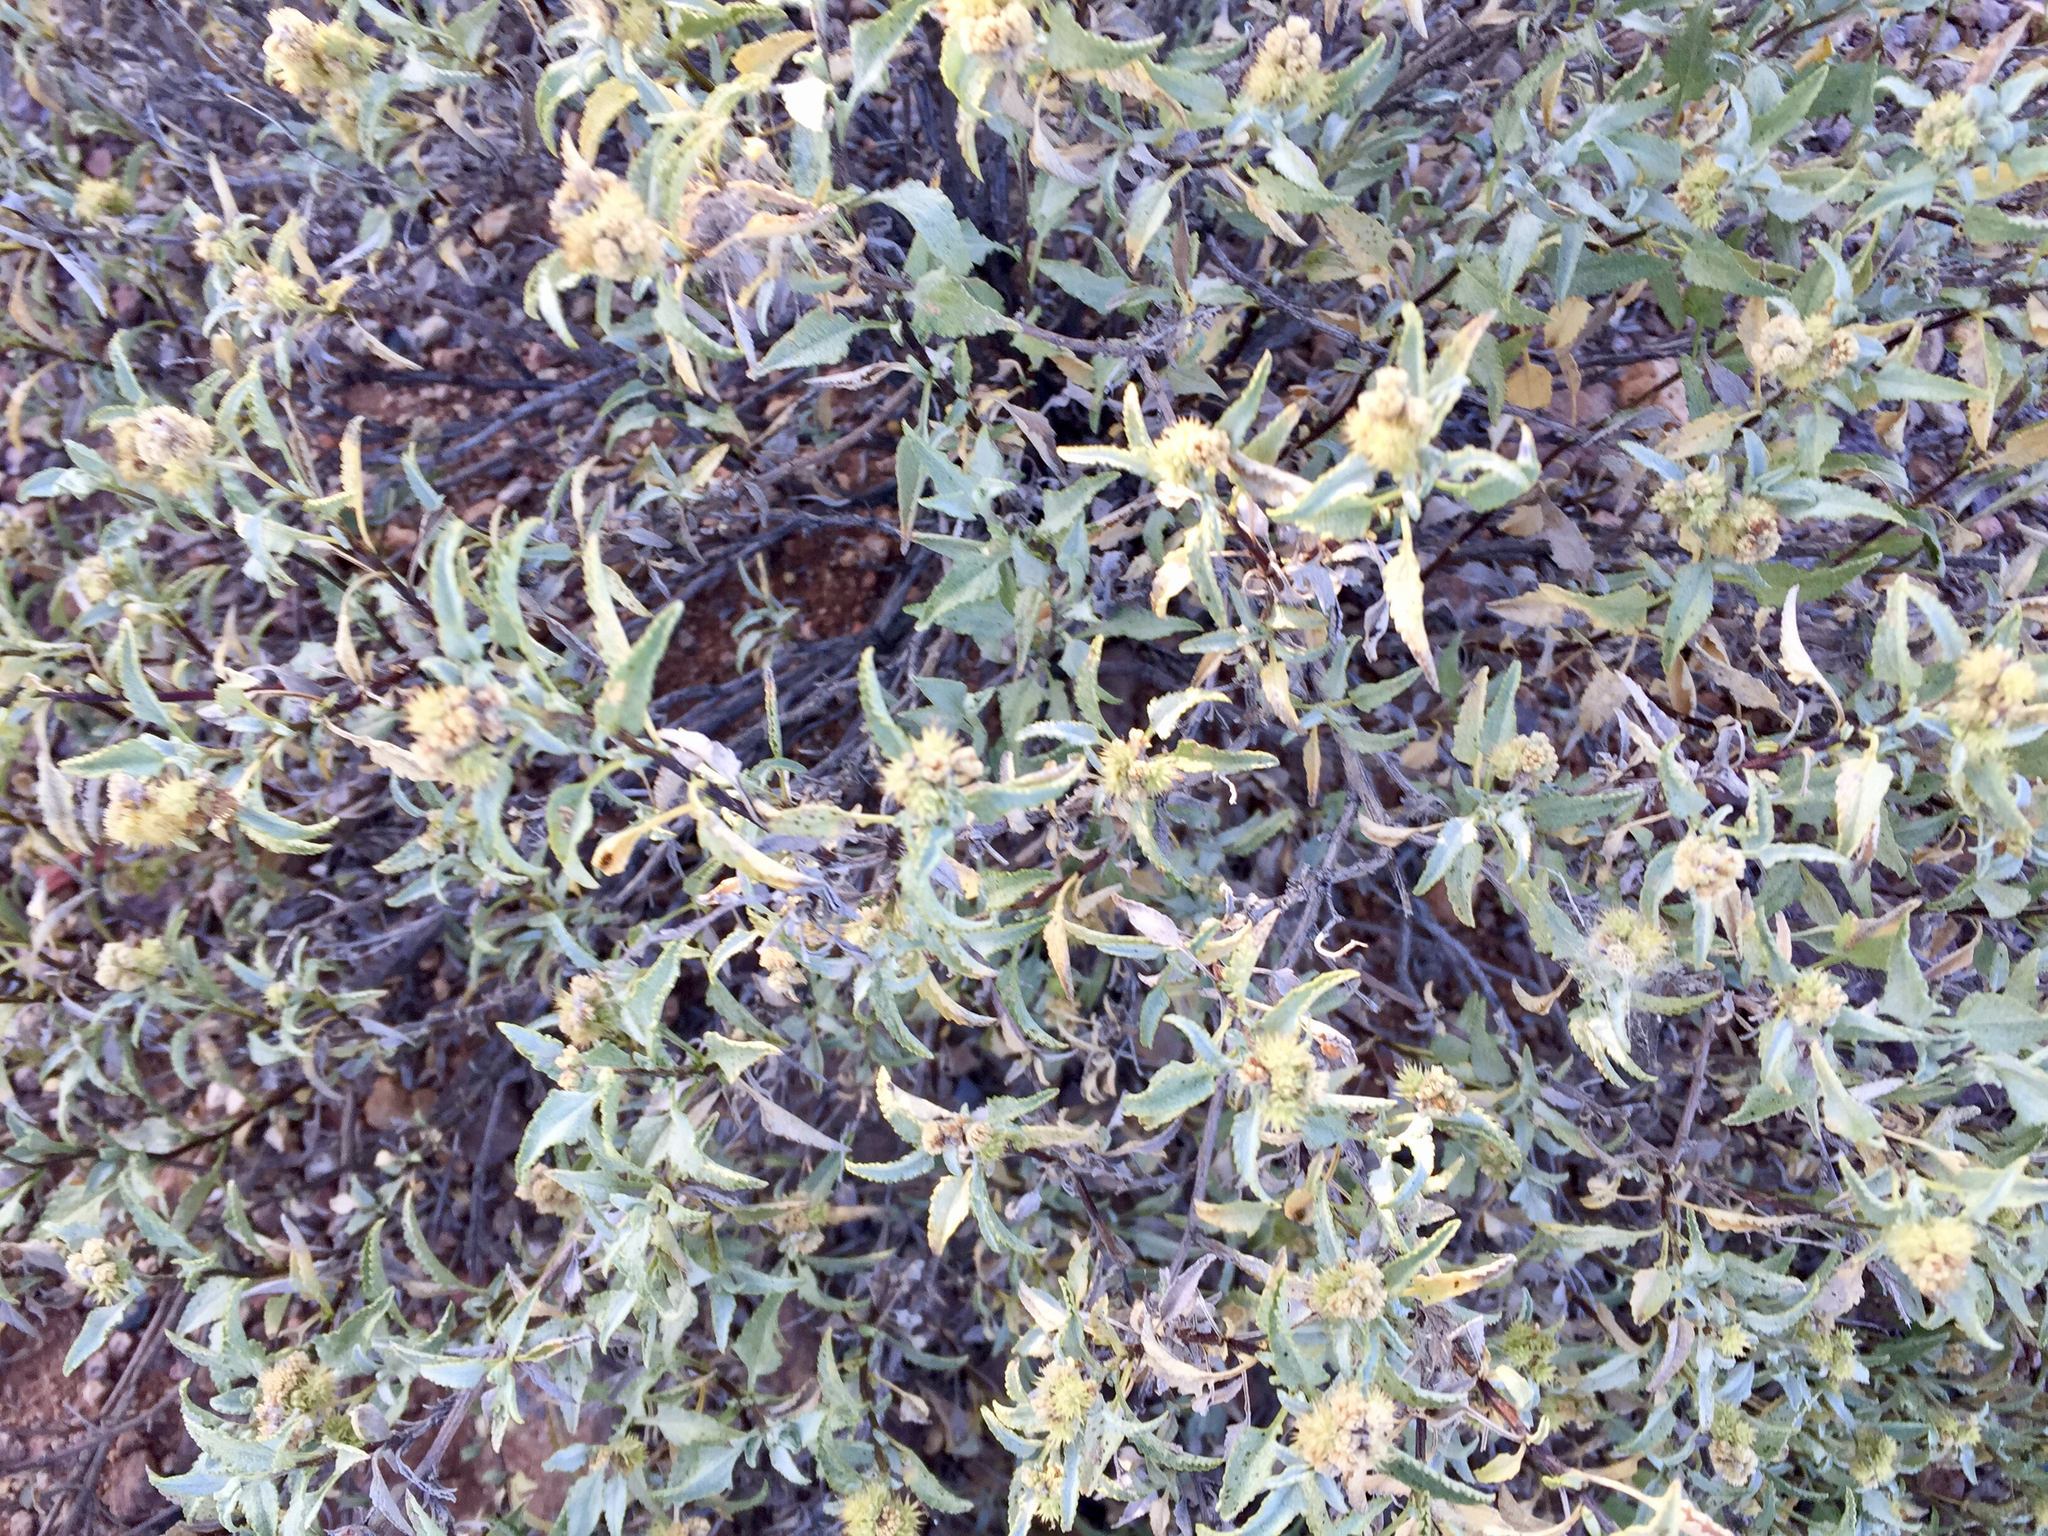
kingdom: Plantae
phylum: Tracheophyta
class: Magnoliopsida
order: Asterales
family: Asteraceae
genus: Ambrosia
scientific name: Ambrosia deltoidea
